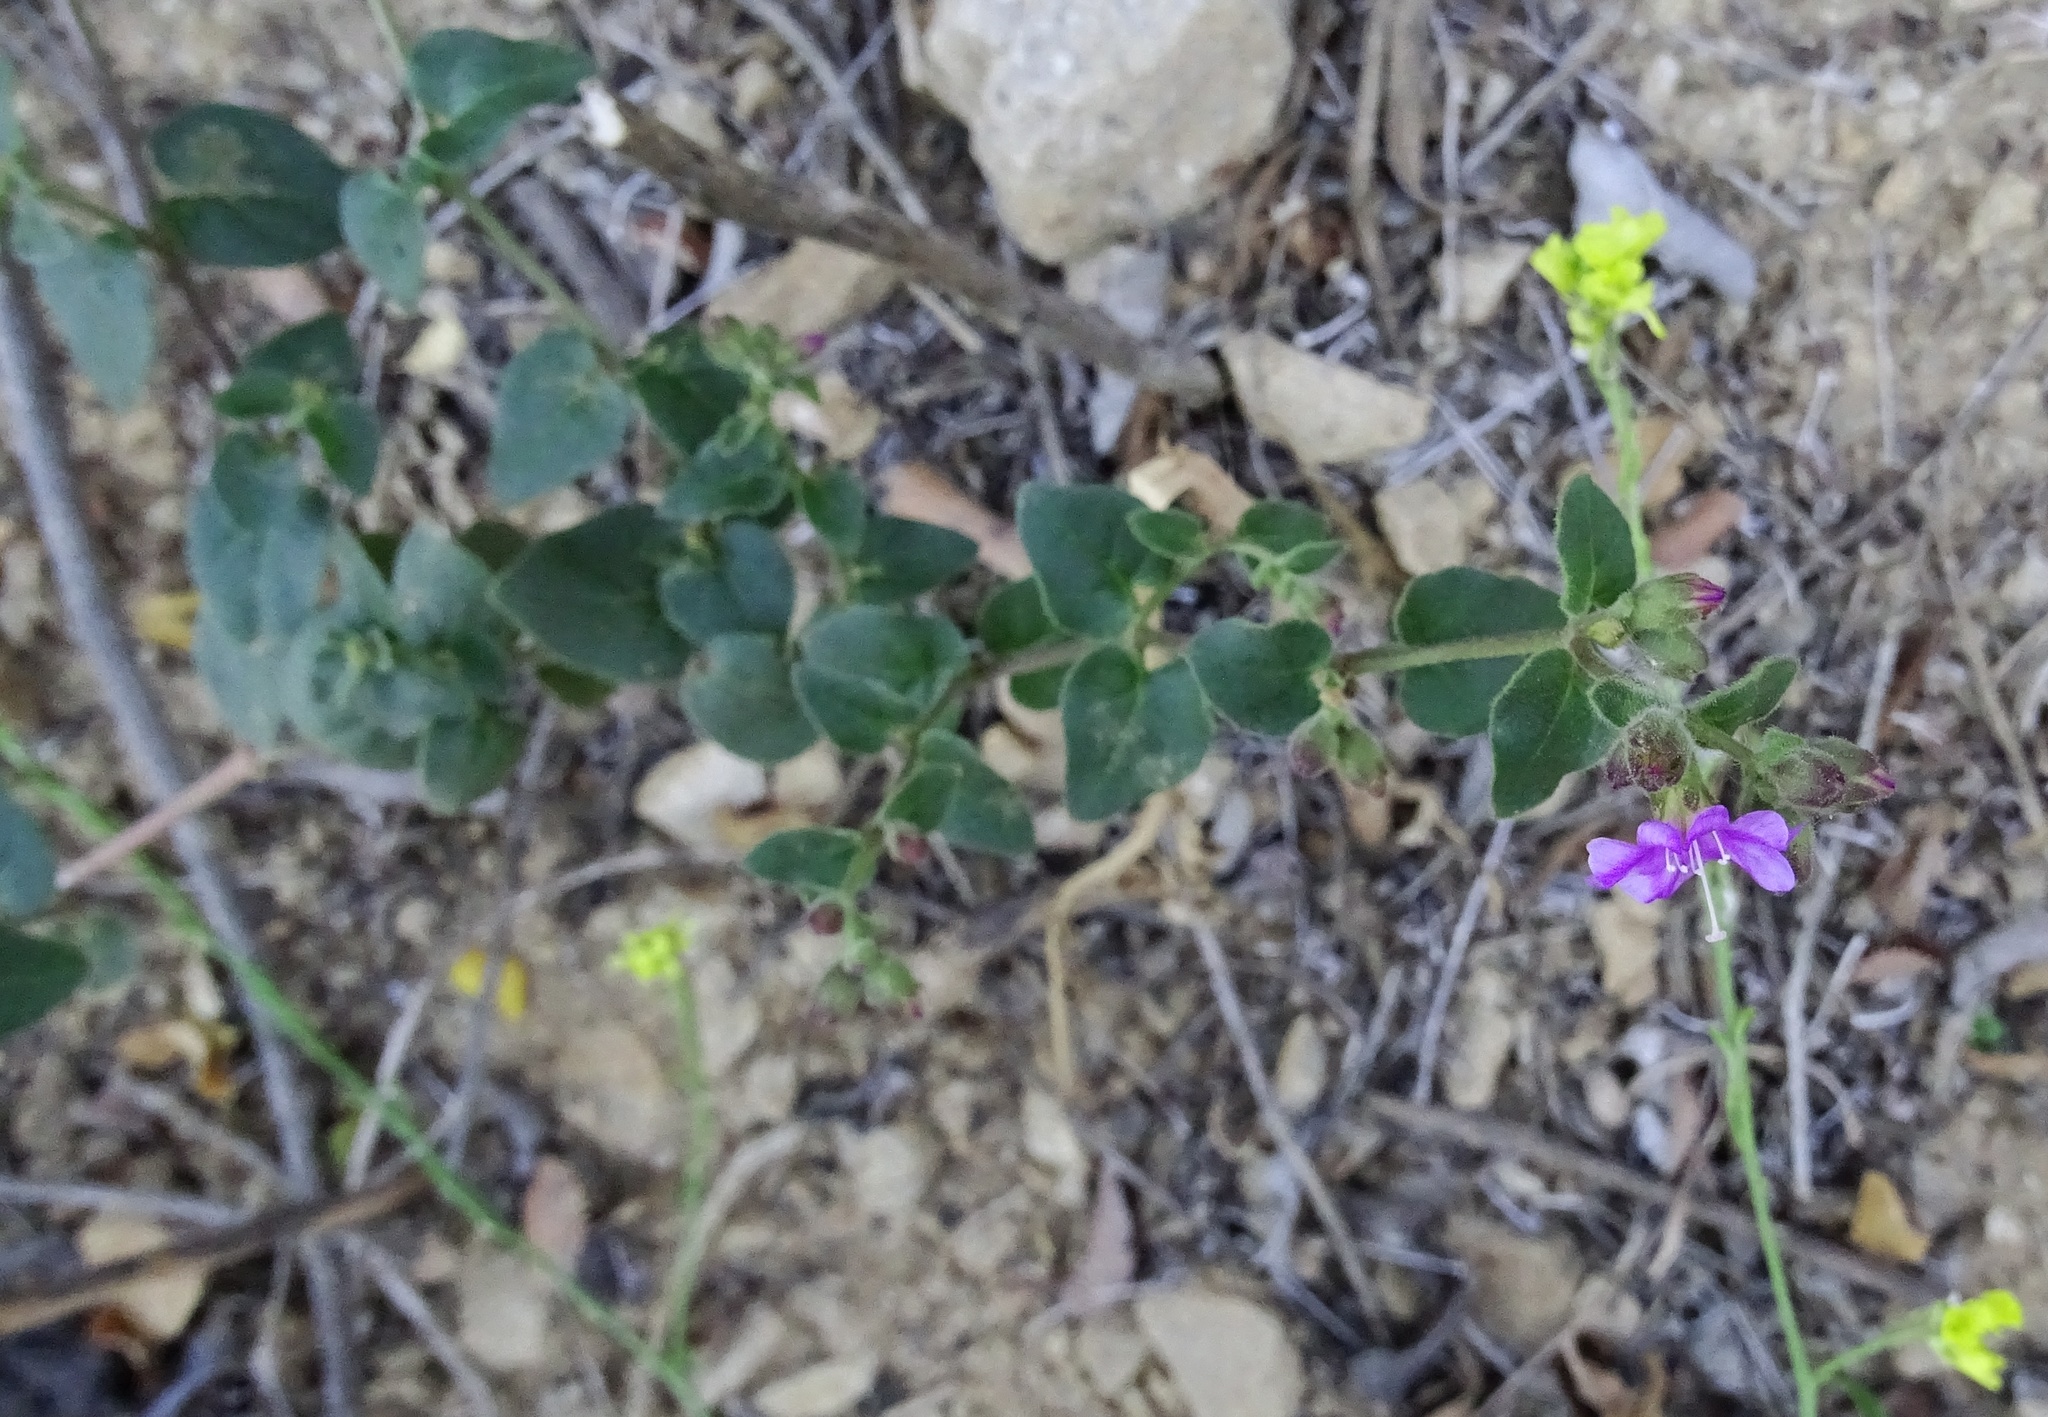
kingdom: Plantae
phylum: Tracheophyta
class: Magnoliopsida
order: Caryophyllales
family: Nyctaginaceae
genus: Mirabilis
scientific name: Mirabilis laevis
